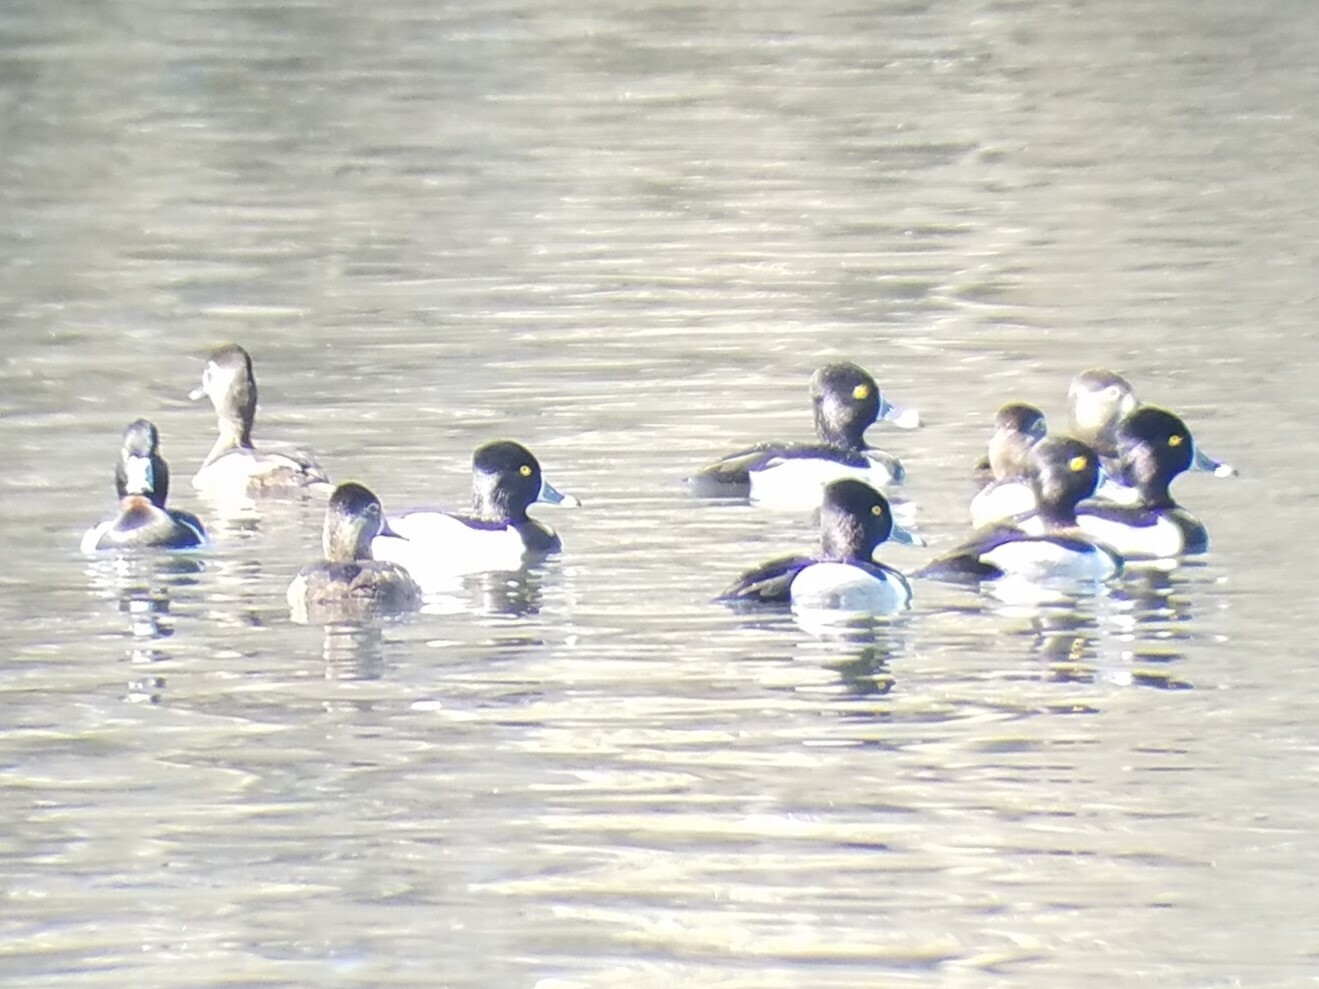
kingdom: Animalia
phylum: Chordata
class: Aves
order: Anseriformes
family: Anatidae
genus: Aythya
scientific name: Aythya collaris
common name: Ring-necked duck
